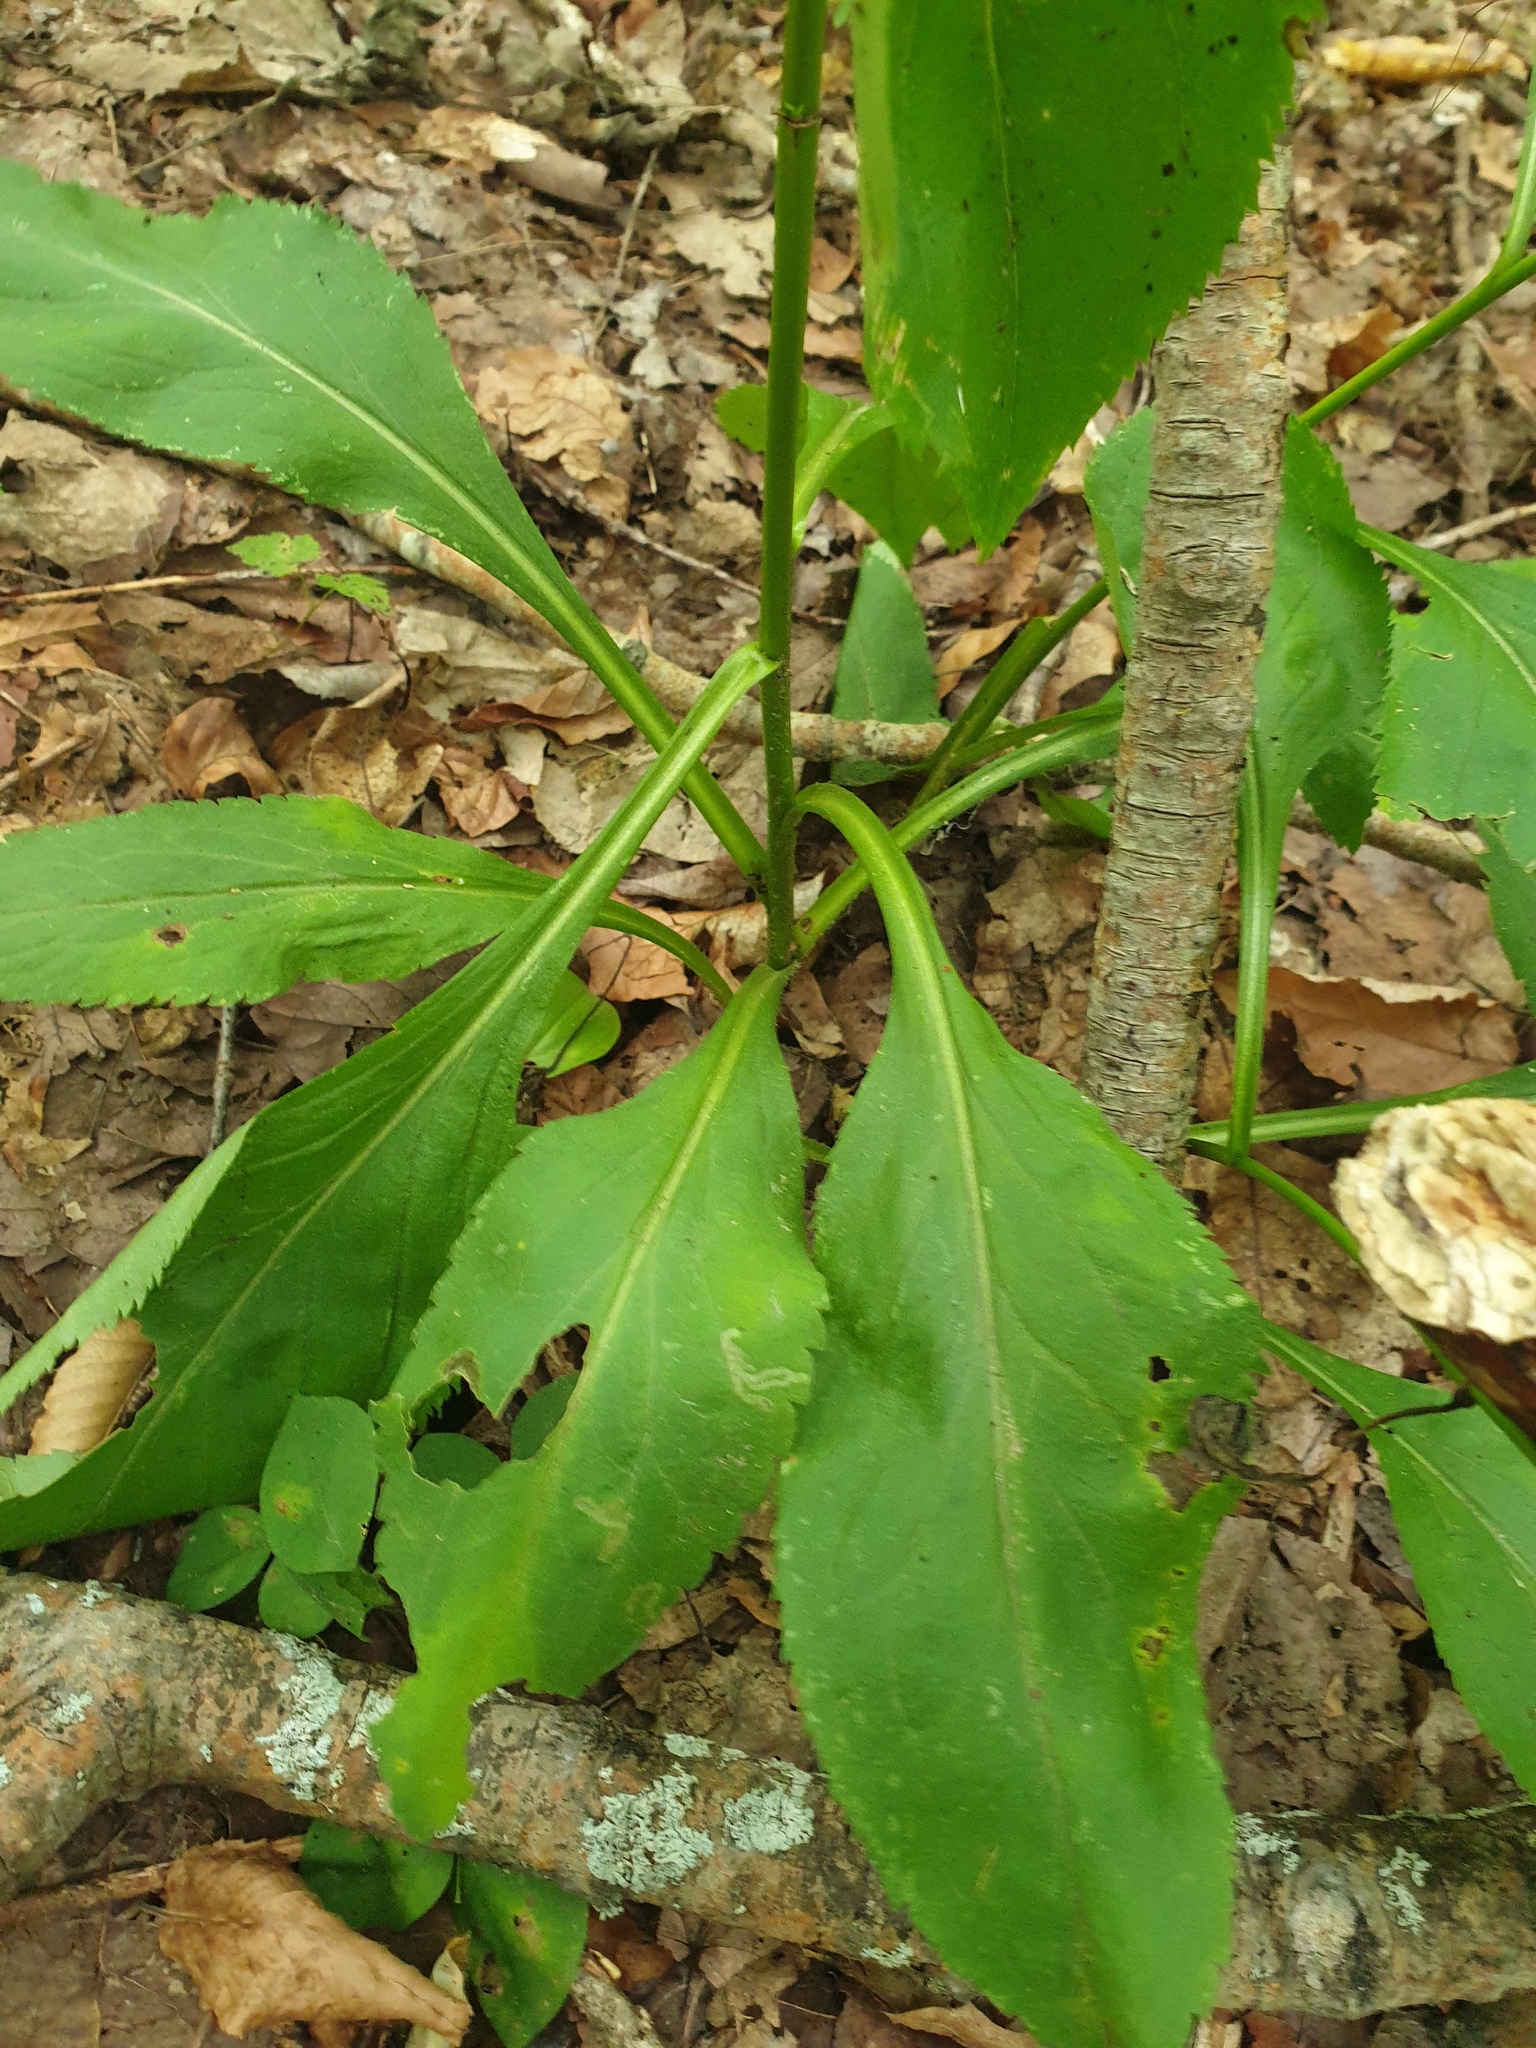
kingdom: Plantae
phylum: Tracheophyta
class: Magnoliopsida
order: Asterales
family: Asteraceae
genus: Solidago
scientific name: Solidago arguta
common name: Atlantic goldenrod
